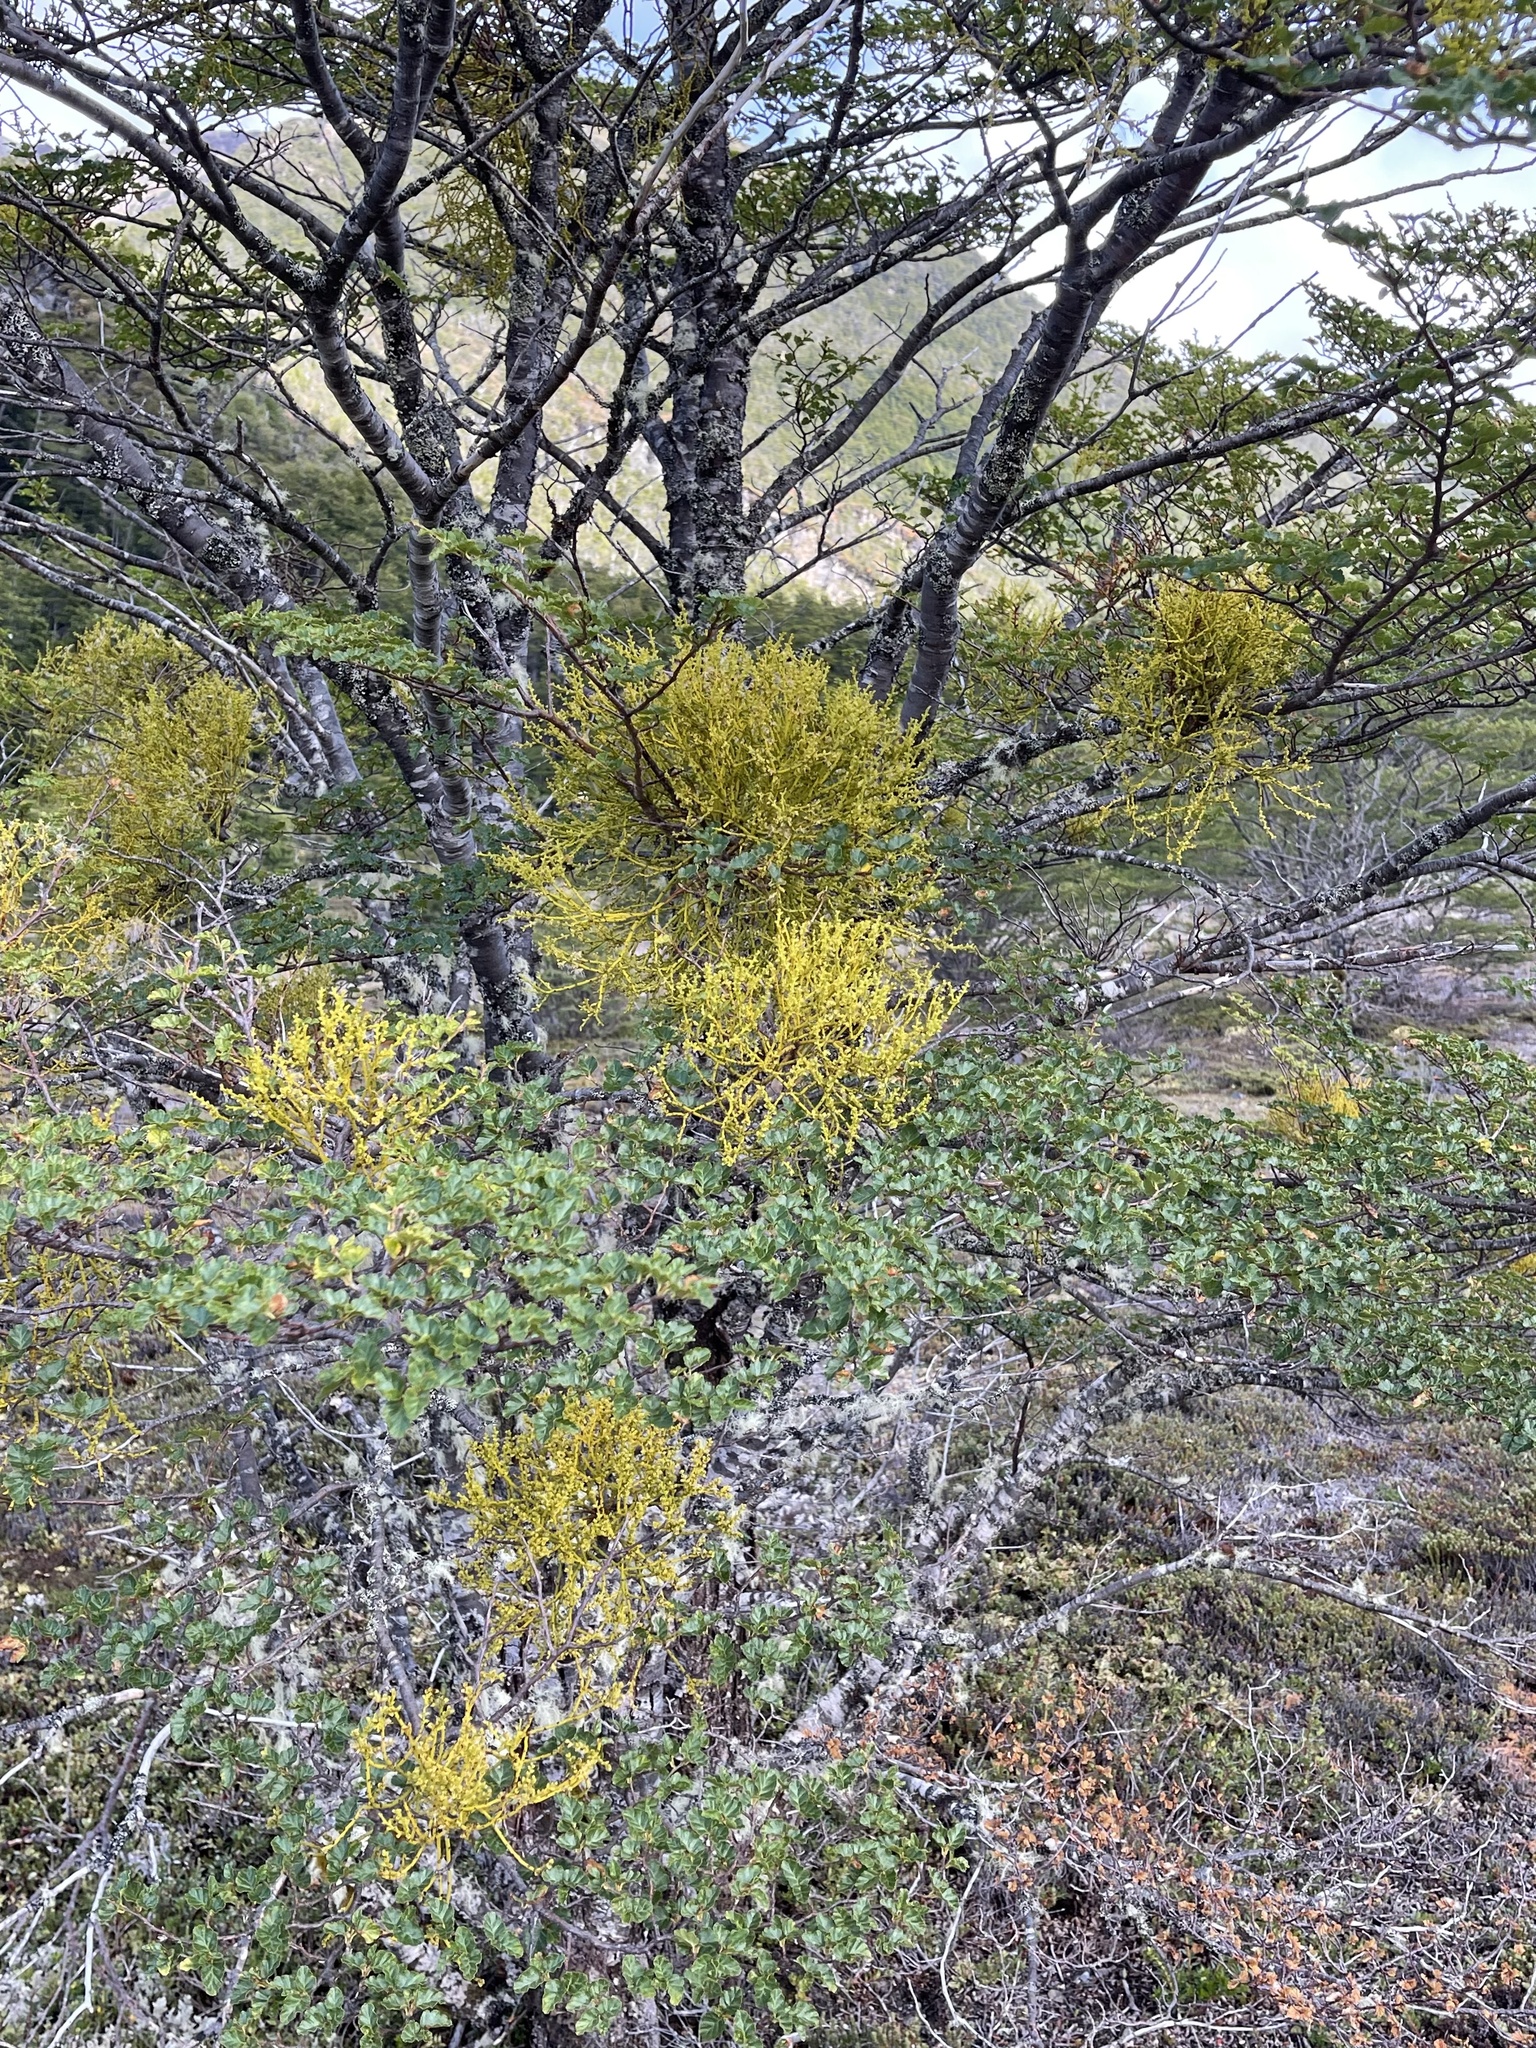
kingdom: Plantae
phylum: Tracheophyta
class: Magnoliopsida
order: Santalales
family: Misodendraceae
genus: Misodendrum
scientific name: Misodendrum punctulatum
